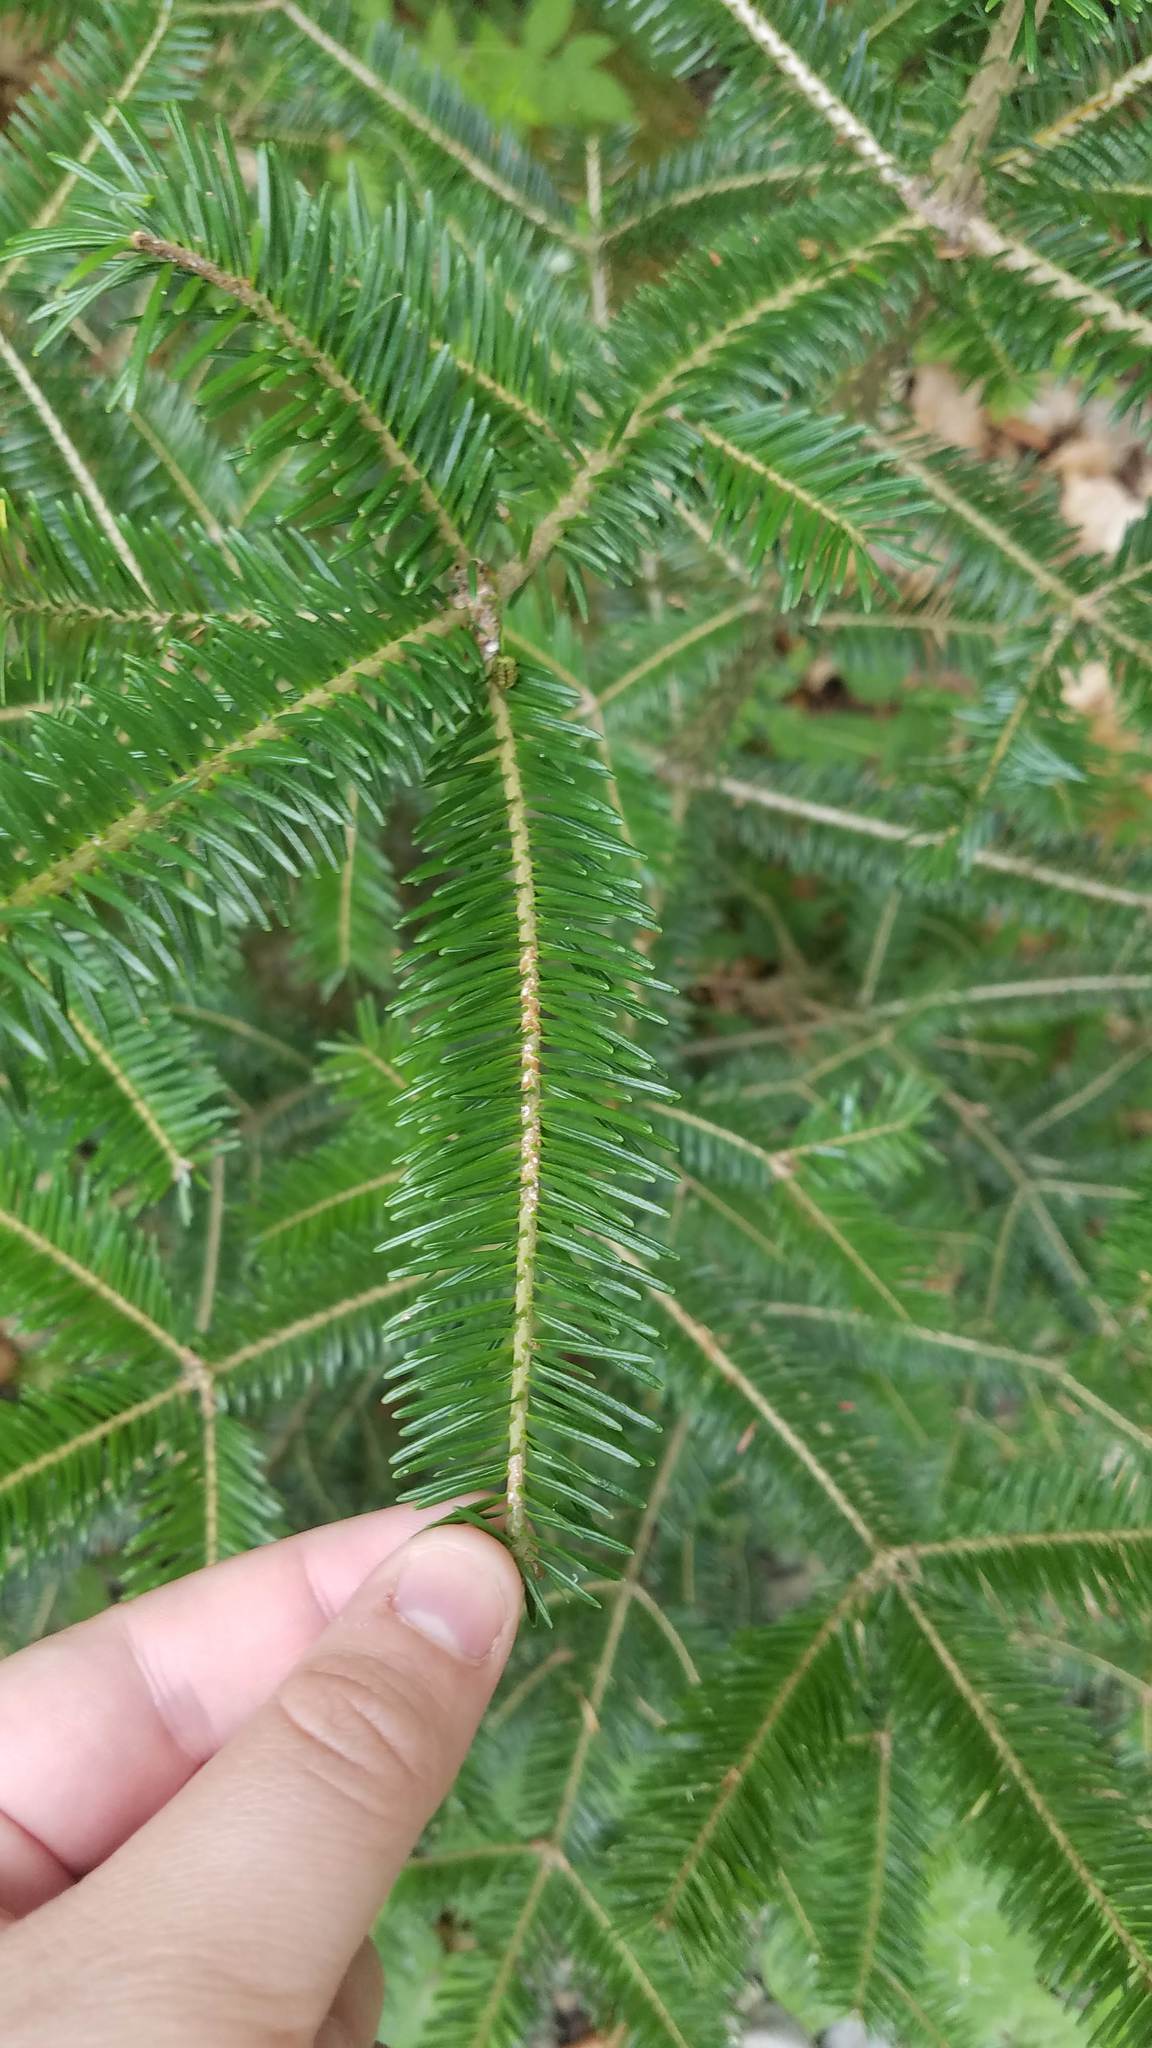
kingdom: Plantae
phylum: Tracheophyta
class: Pinopsida
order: Pinales
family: Pinaceae
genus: Abies
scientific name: Abies balsamea
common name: Balsam fir
